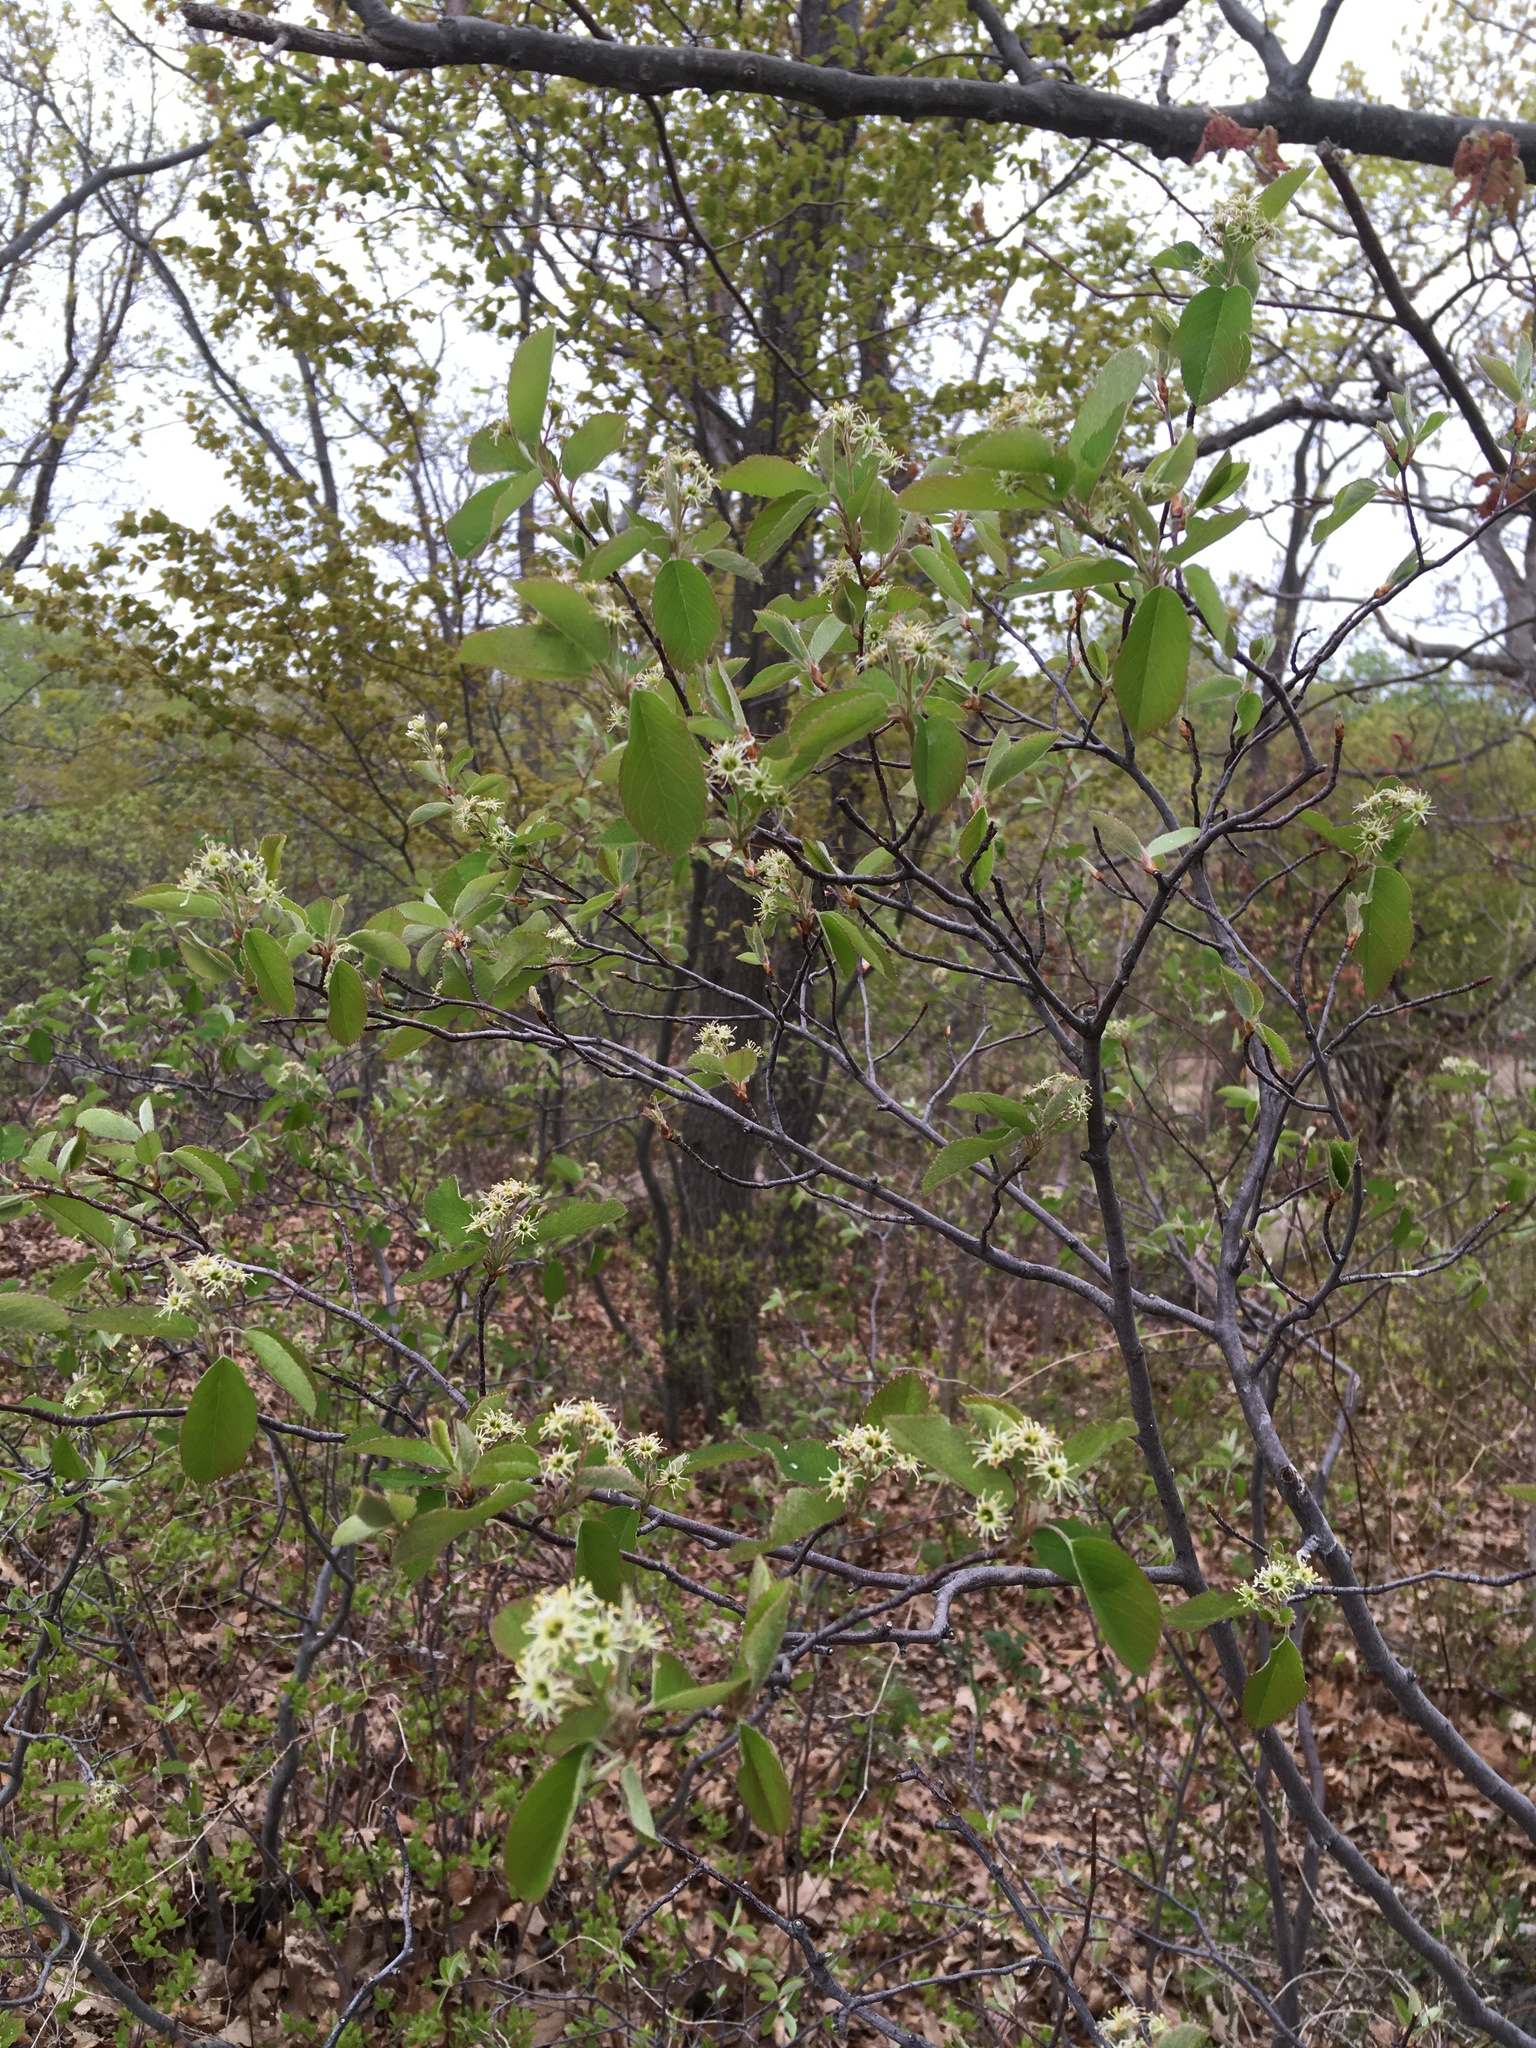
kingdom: Plantae
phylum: Tracheophyta
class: Magnoliopsida
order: Rosales
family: Rosaceae
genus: Amelanchier
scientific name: Amelanchier nantucketensis
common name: Nantucket shadbush
